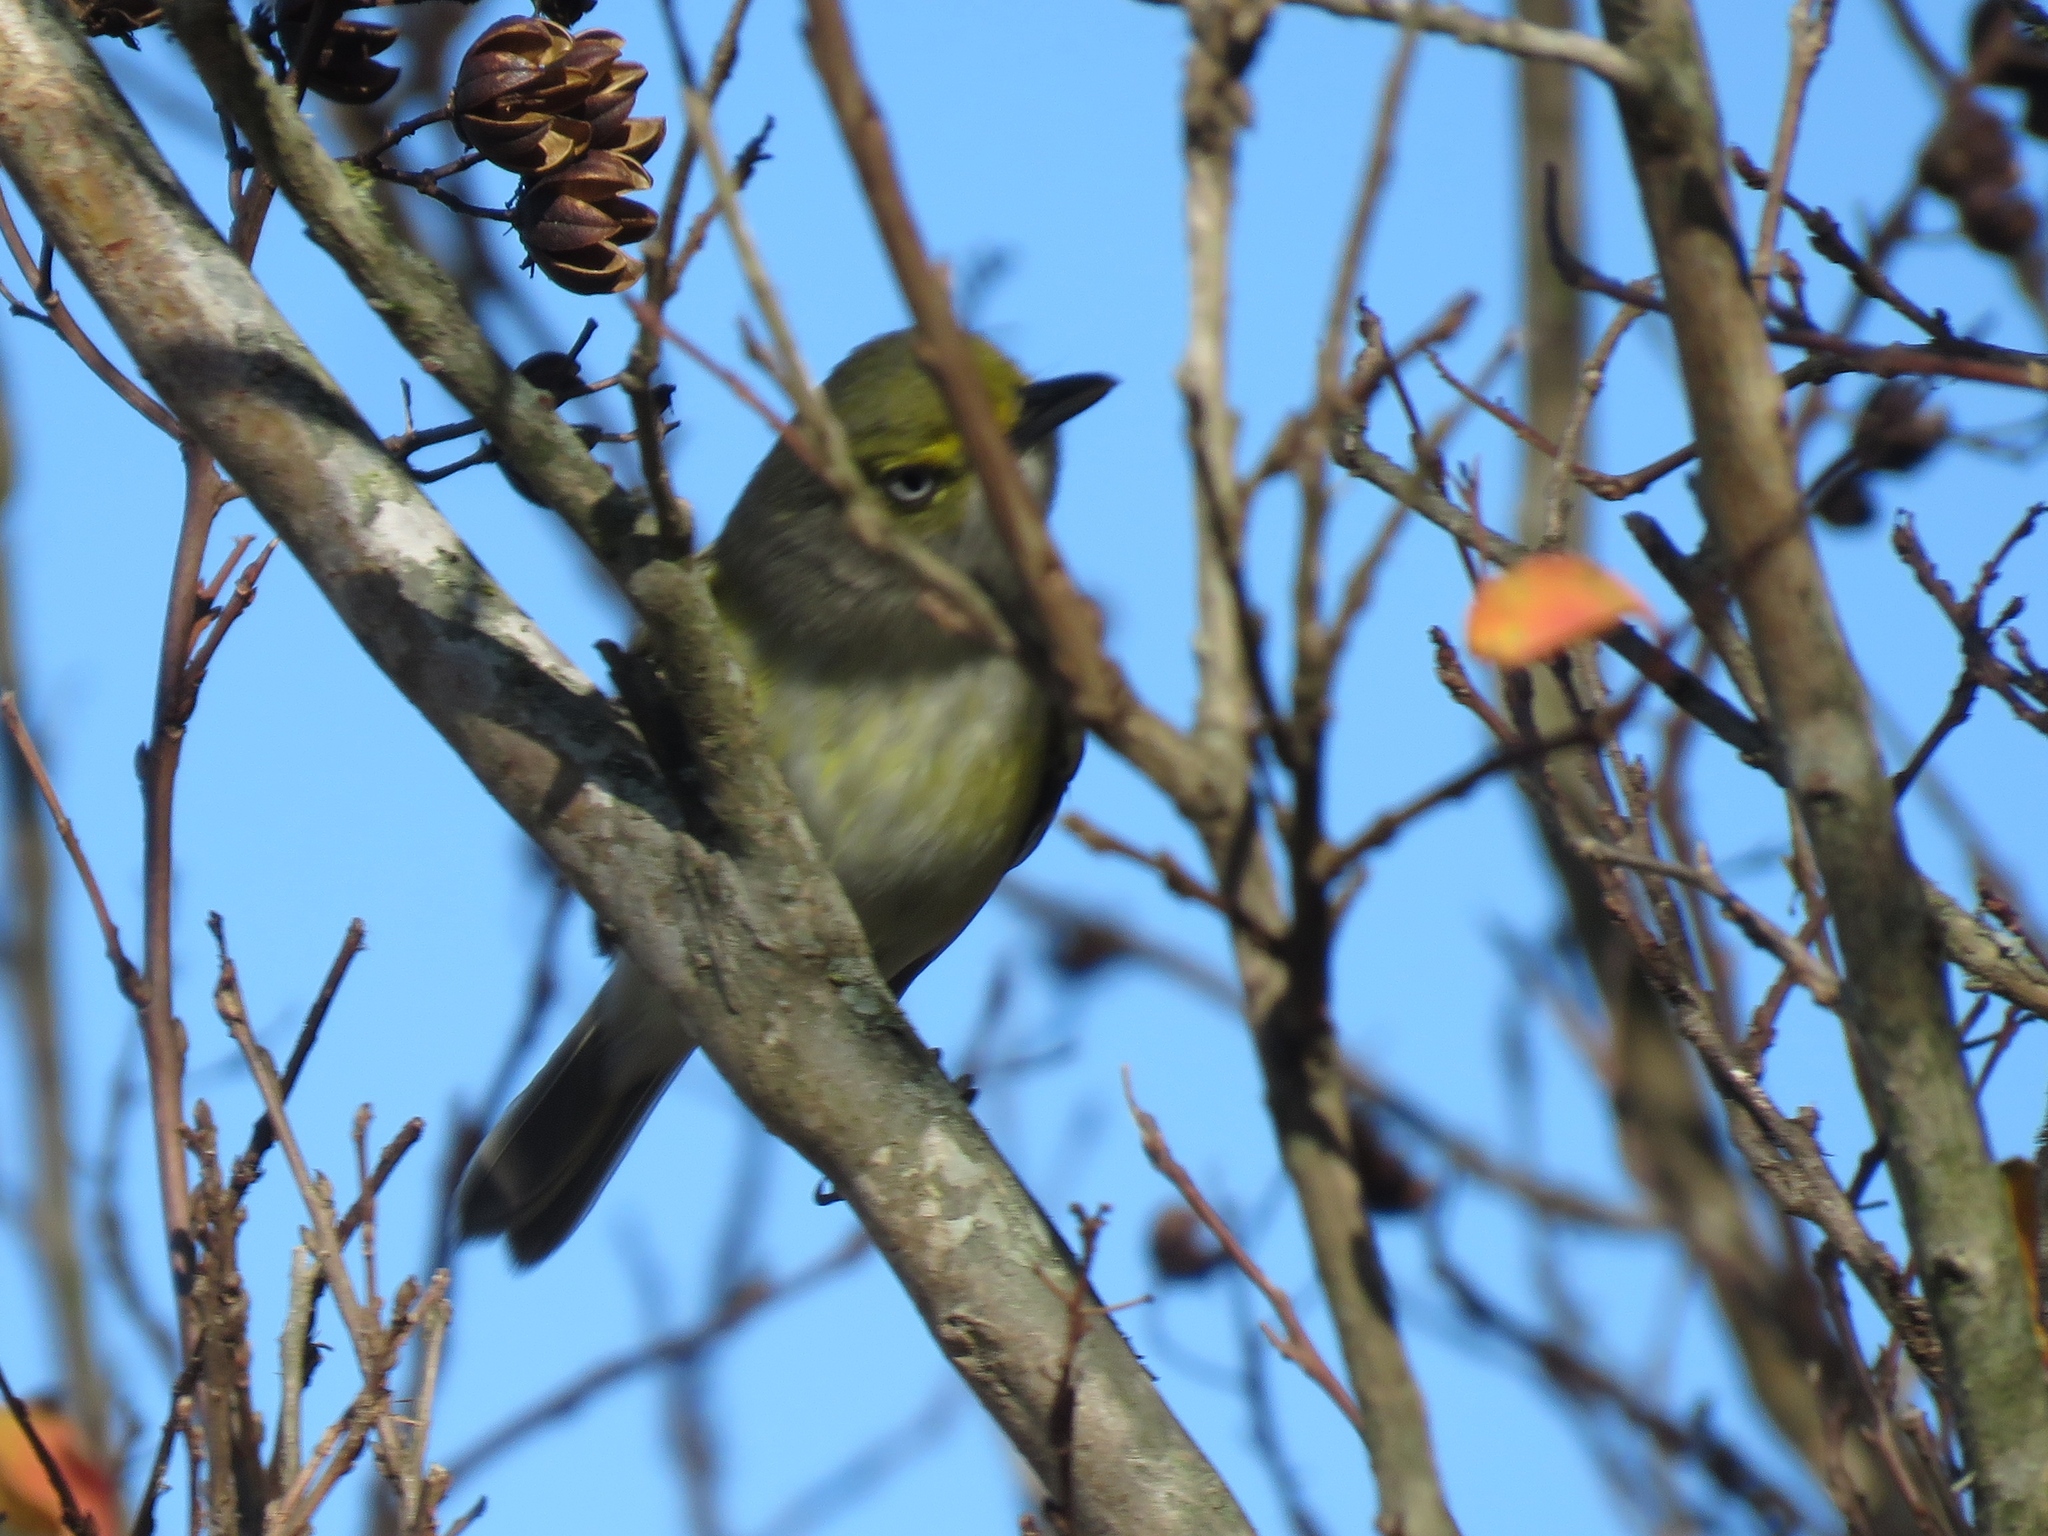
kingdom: Animalia
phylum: Chordata
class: Aves
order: Passeriformes
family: Vireonidae
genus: Vireo
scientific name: Vireo griseus
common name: White-eyed vireo
